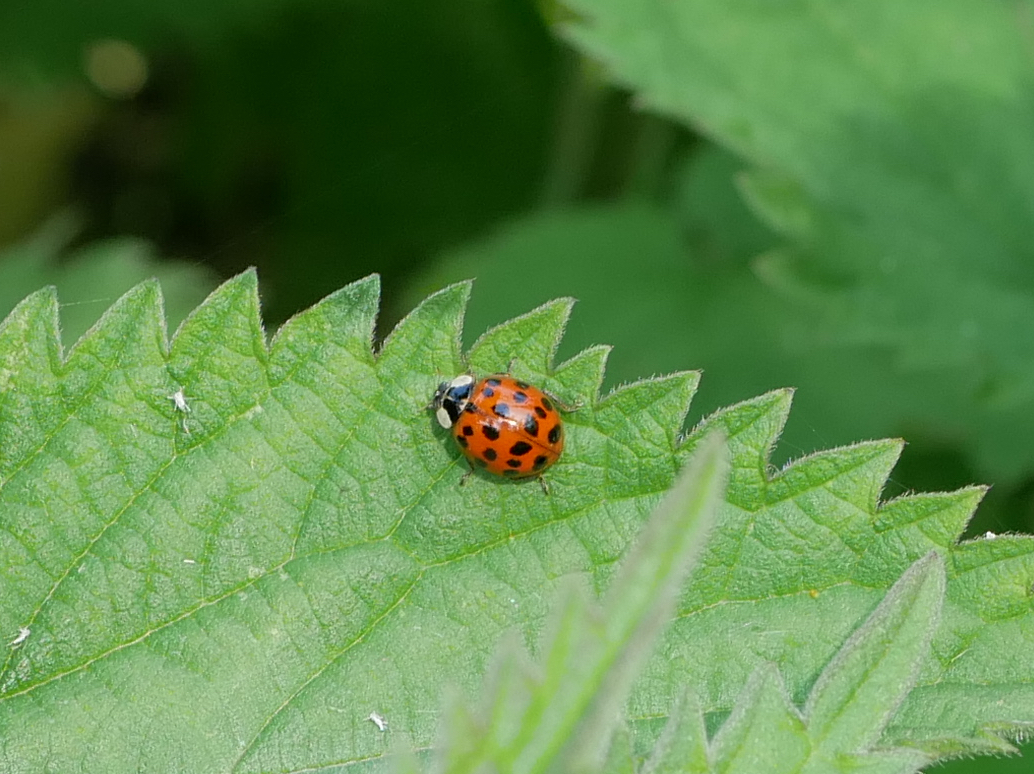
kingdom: Animalia
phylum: Arthropoda
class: Insecta
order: Coleoptera
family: Coccinellidae
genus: Harmonia
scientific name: Harmonia axyridis
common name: Harlequin ladybird
